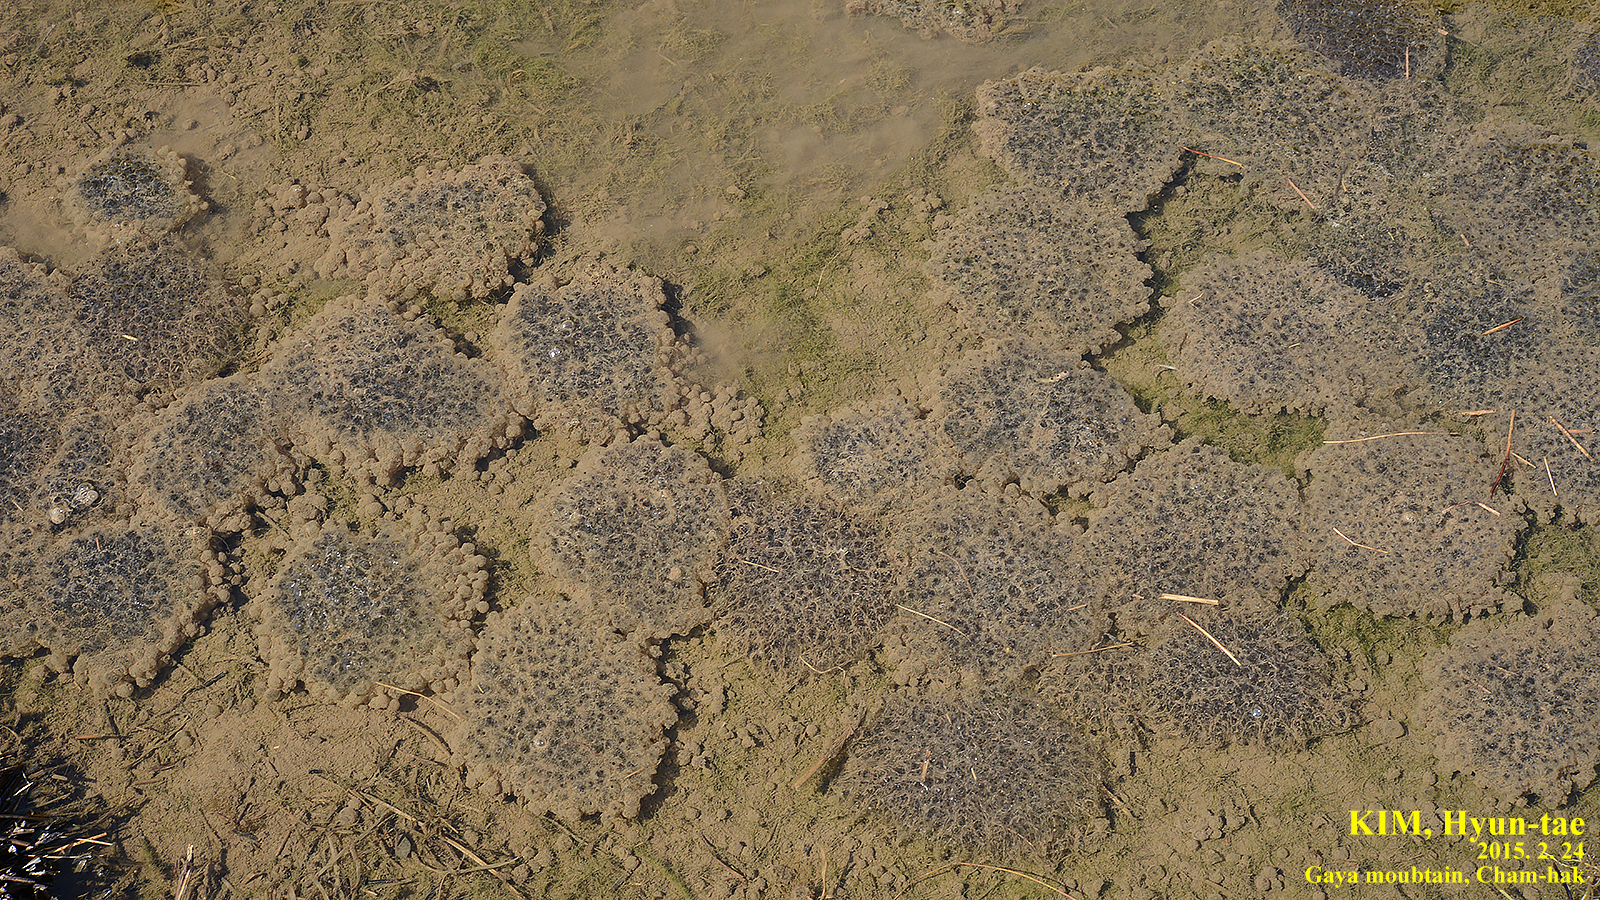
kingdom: Animalia
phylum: Chordata
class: Amphibia
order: Anura
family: Ranidae
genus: Rana
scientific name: Rana uenoi
